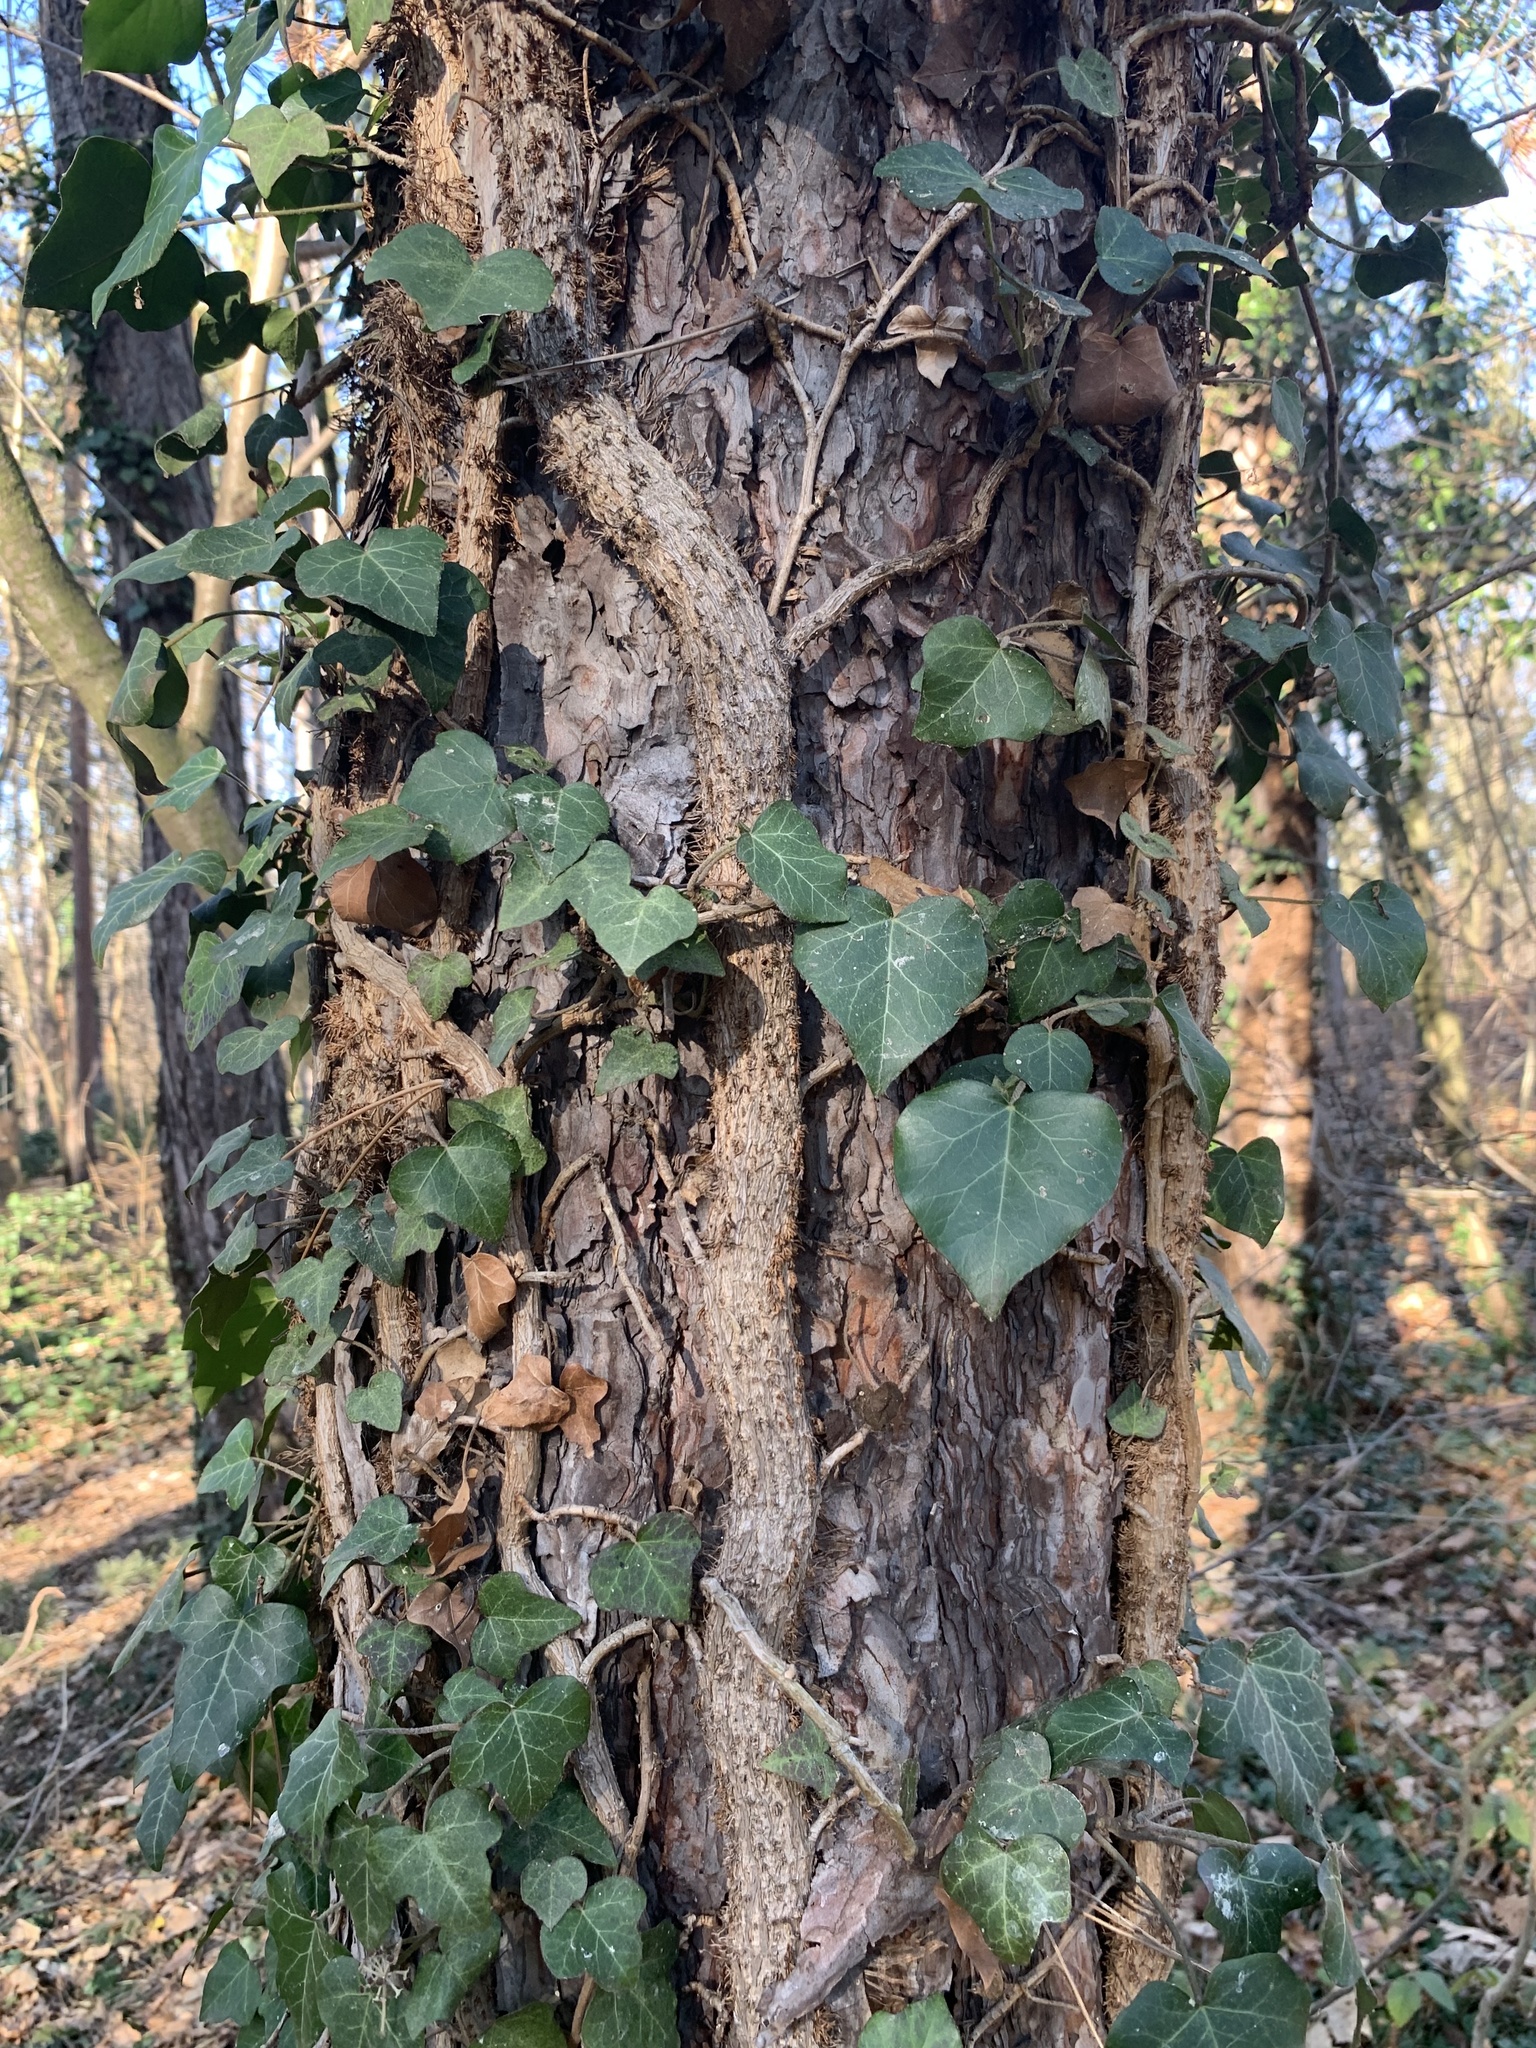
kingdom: Plantae
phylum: Tracheophyta
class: Magnoliopsida
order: Apiales
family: Araliaceae
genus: Hedera
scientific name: Hedera helix
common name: Ivy
